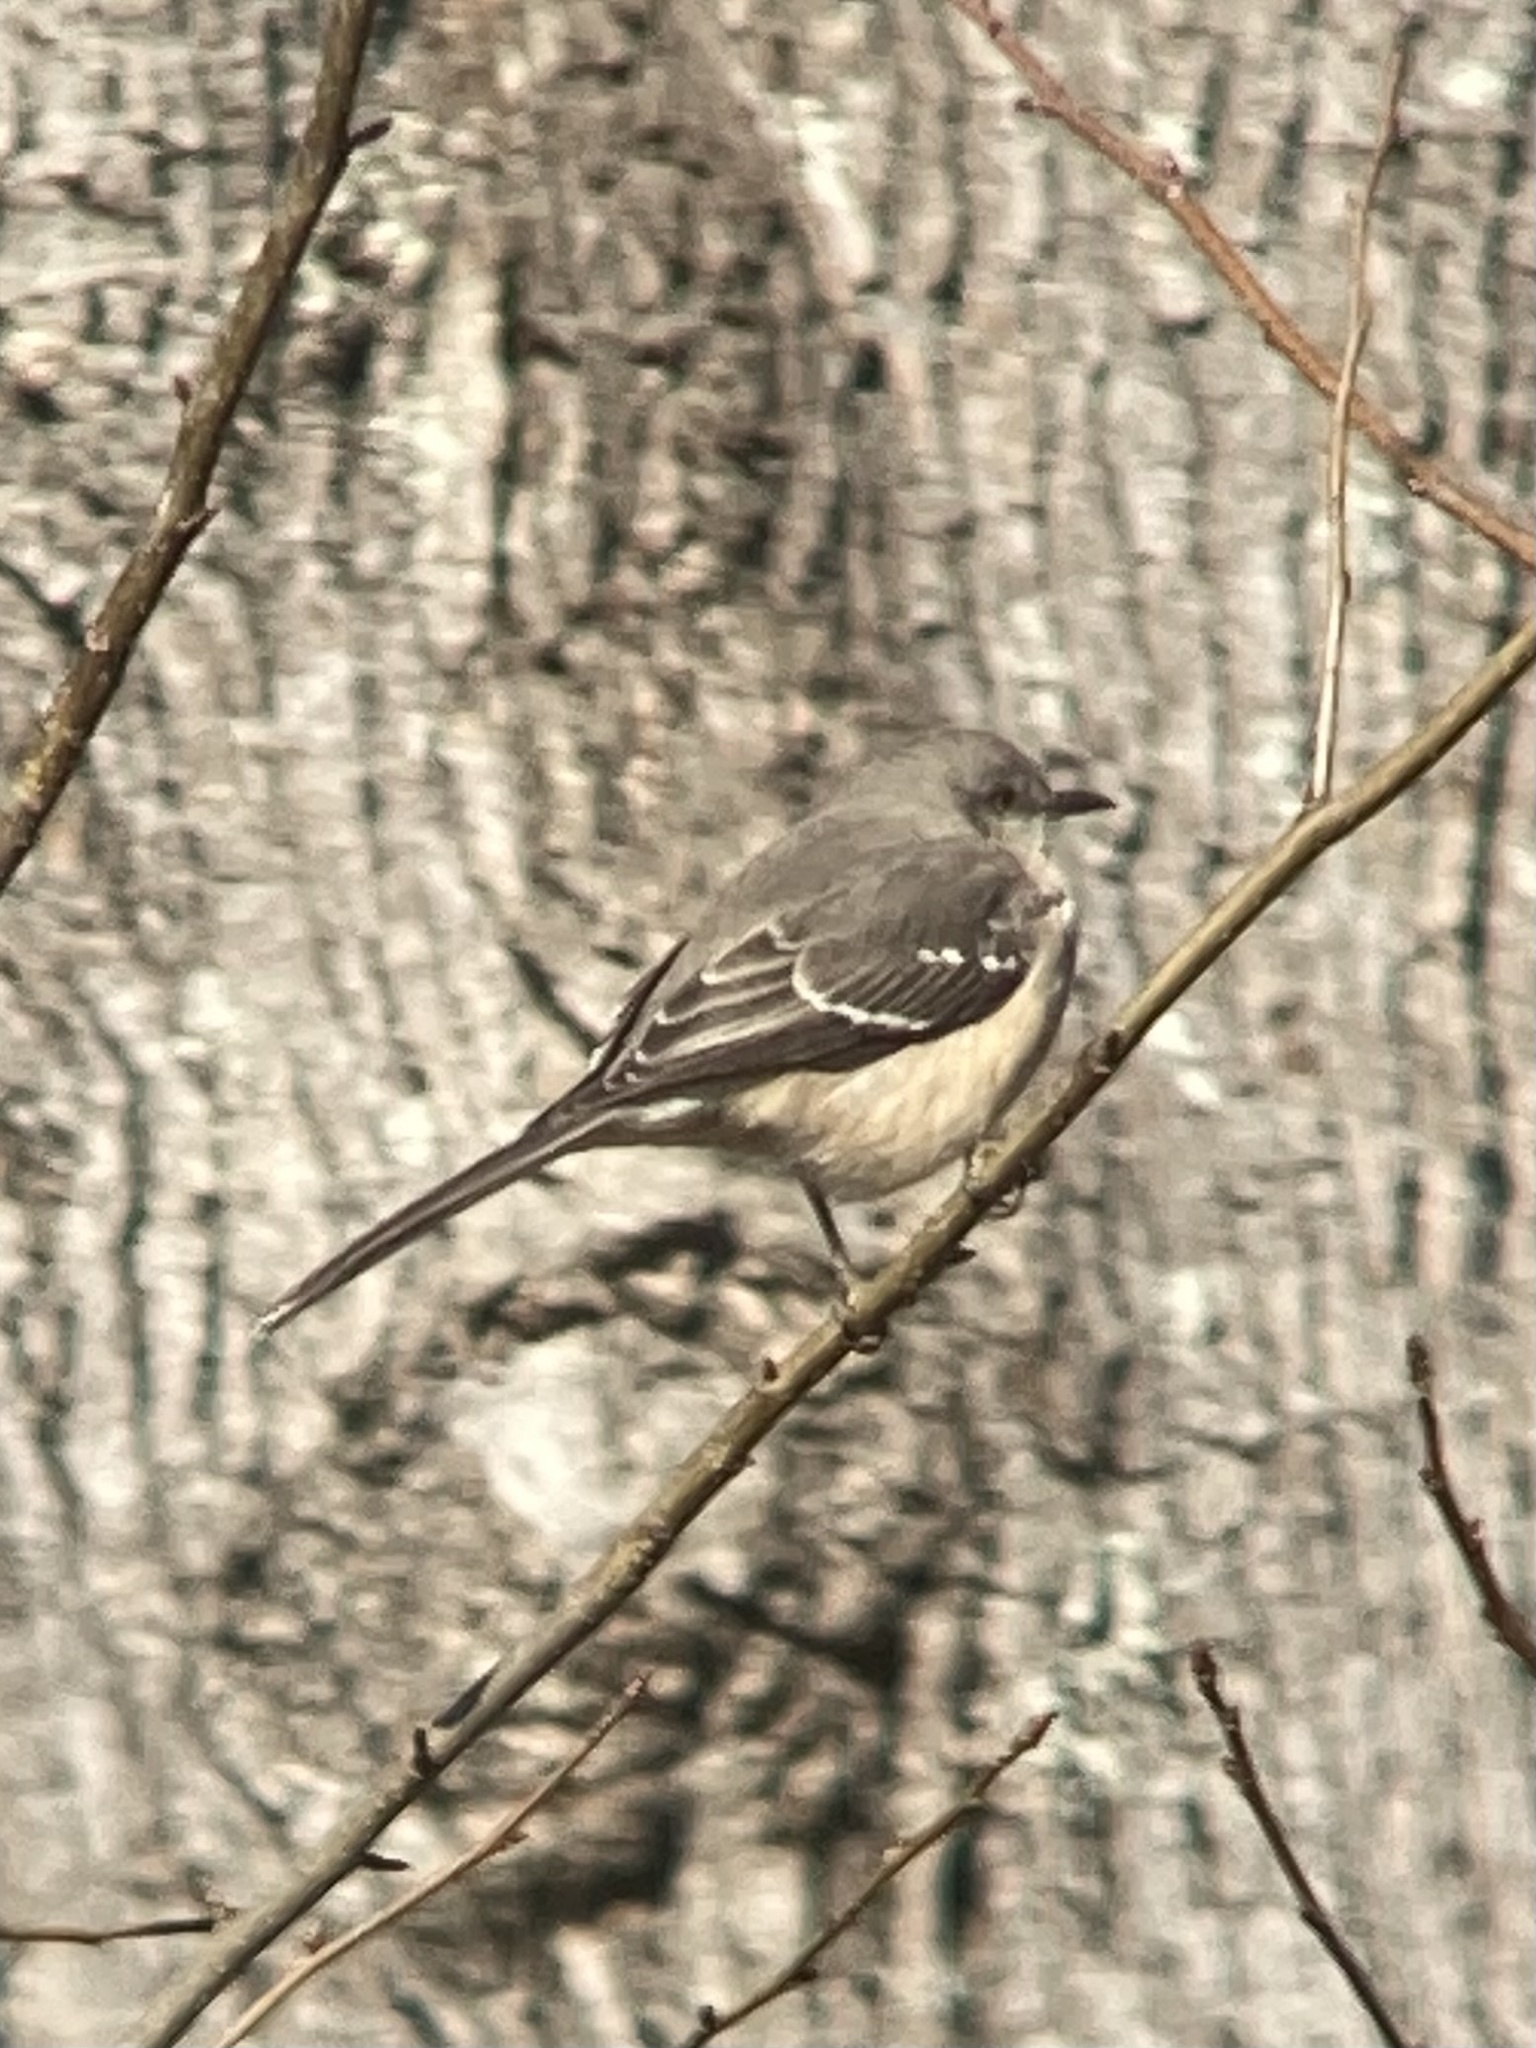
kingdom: Animalia
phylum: Chordata
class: Aves
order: Passeriformes
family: Mimidae
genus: Mimus
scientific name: Mimus polyglottos
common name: Northern mockingbird
